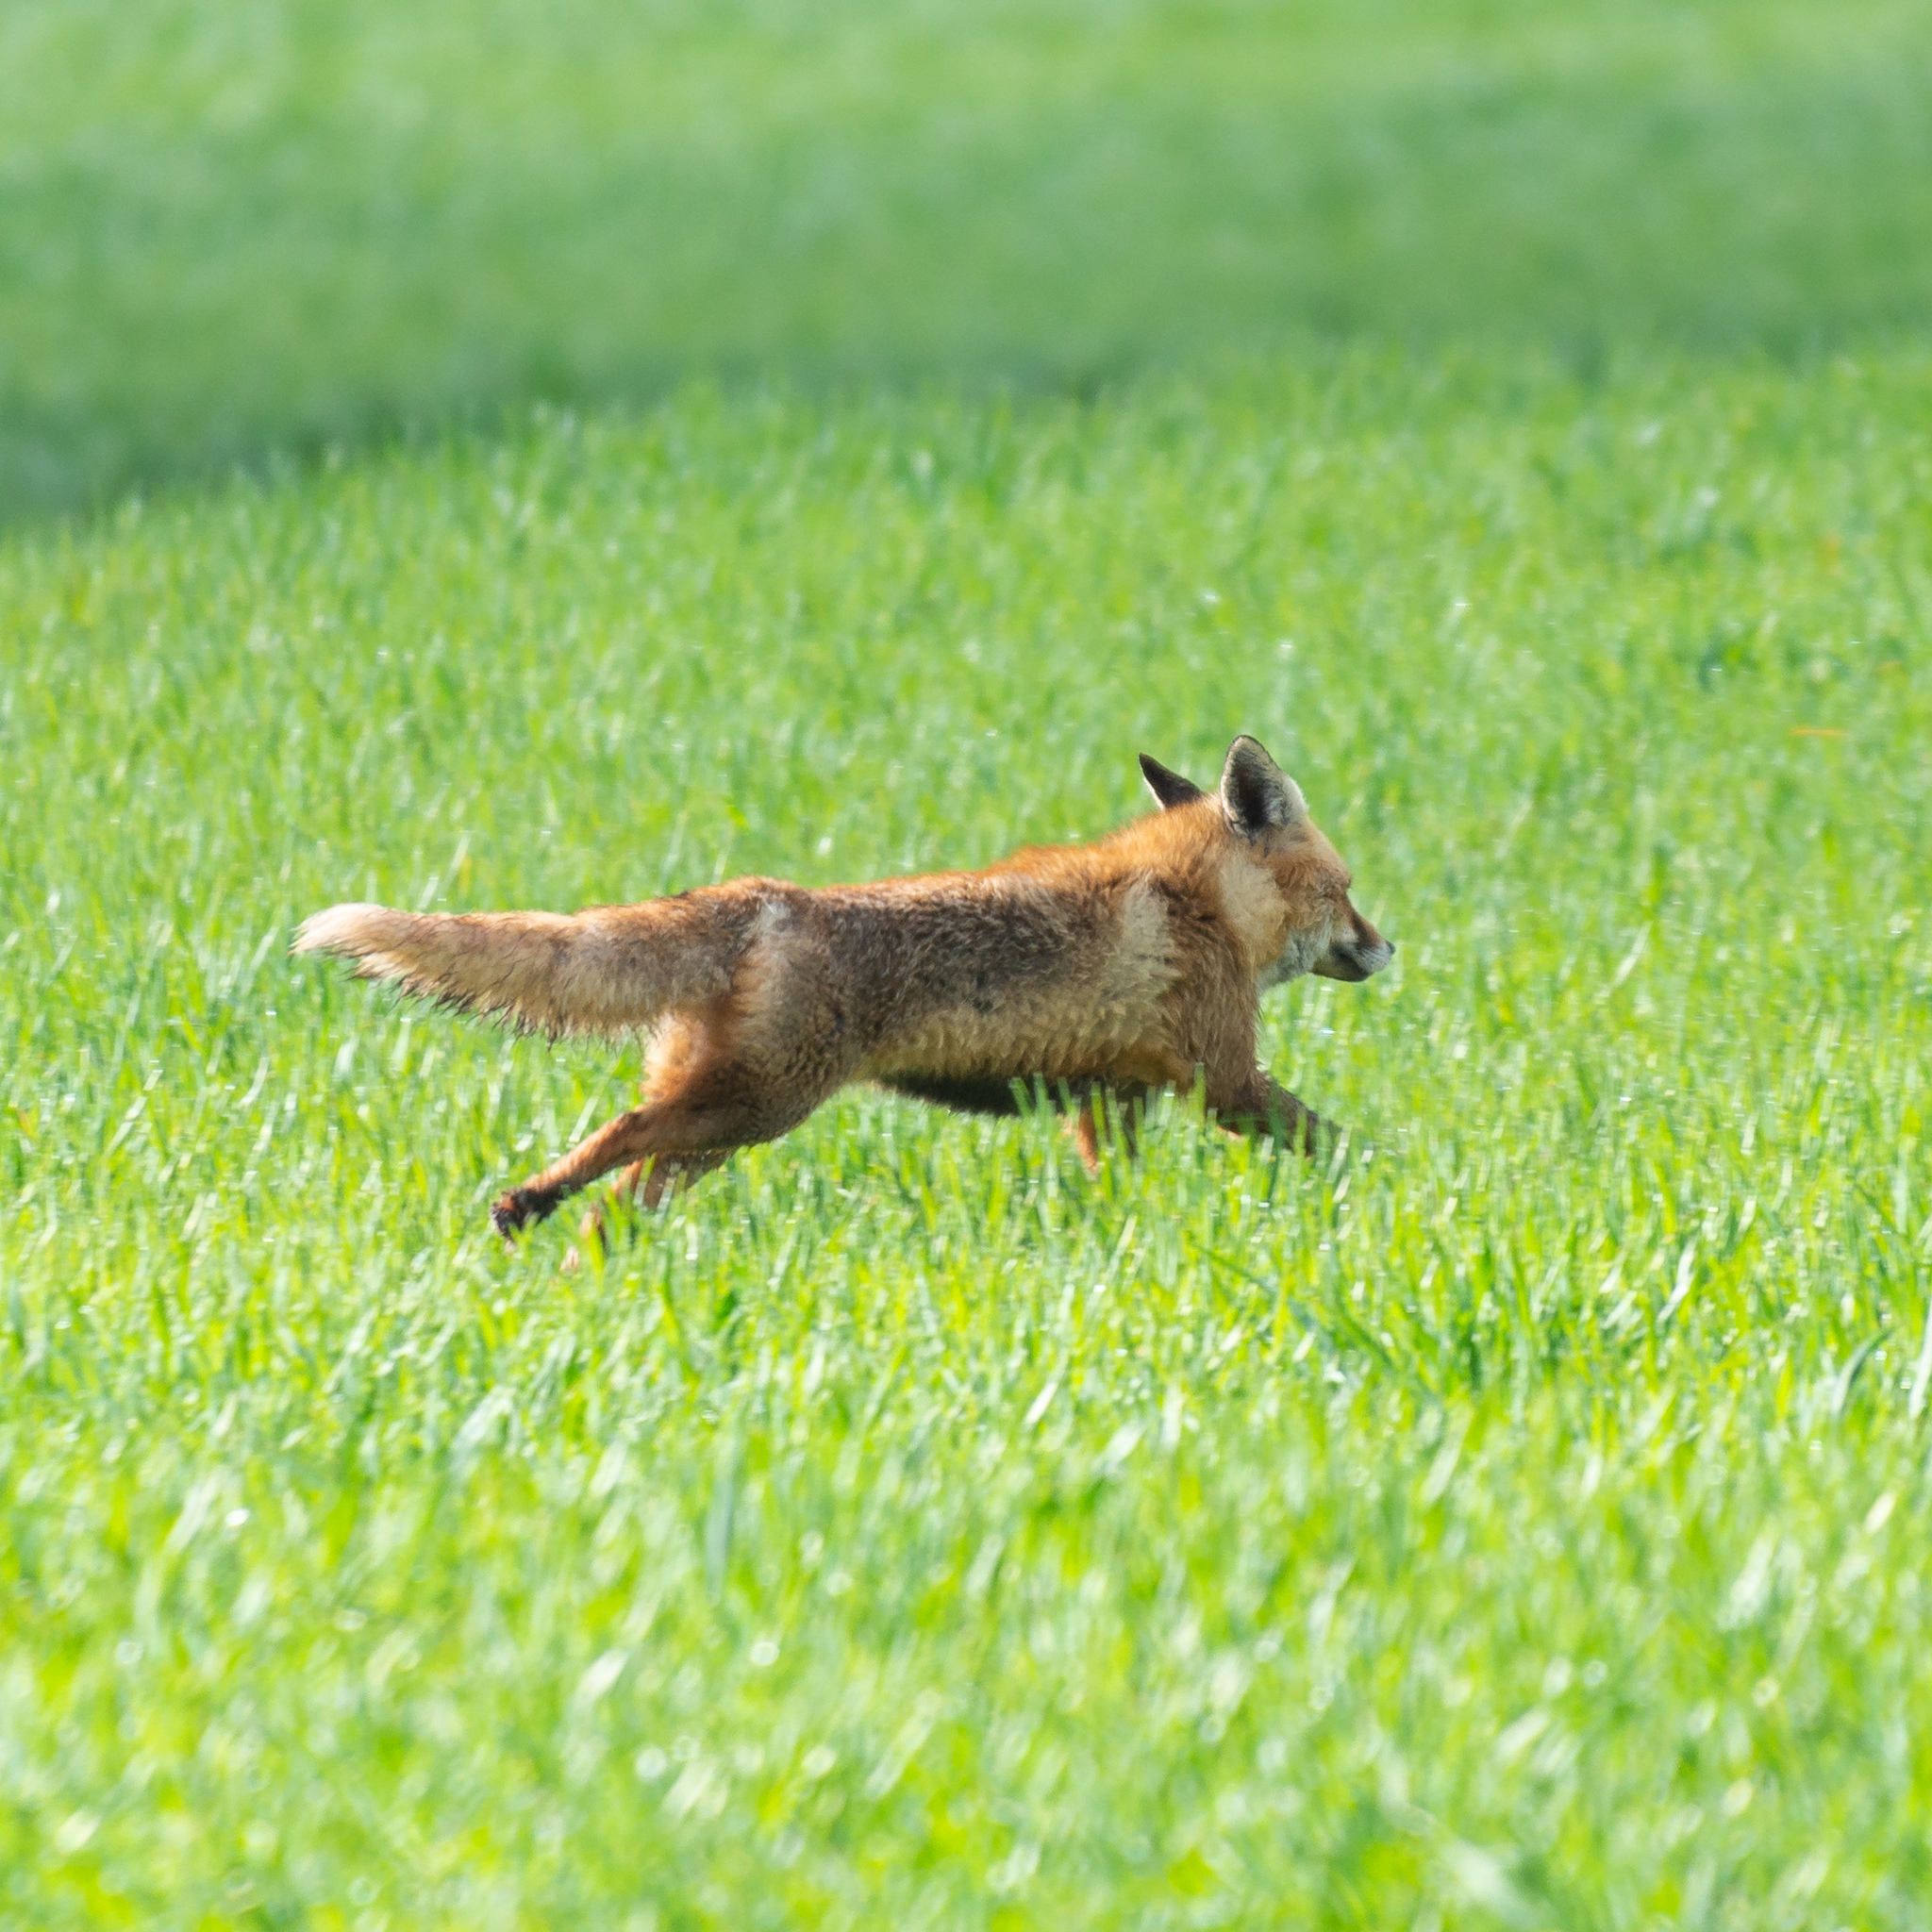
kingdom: Animalia
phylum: Chordata
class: Mammalia
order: Carnivora
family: Canidae
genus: Vulpes
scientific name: Vulpes vulpes
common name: Red fox
